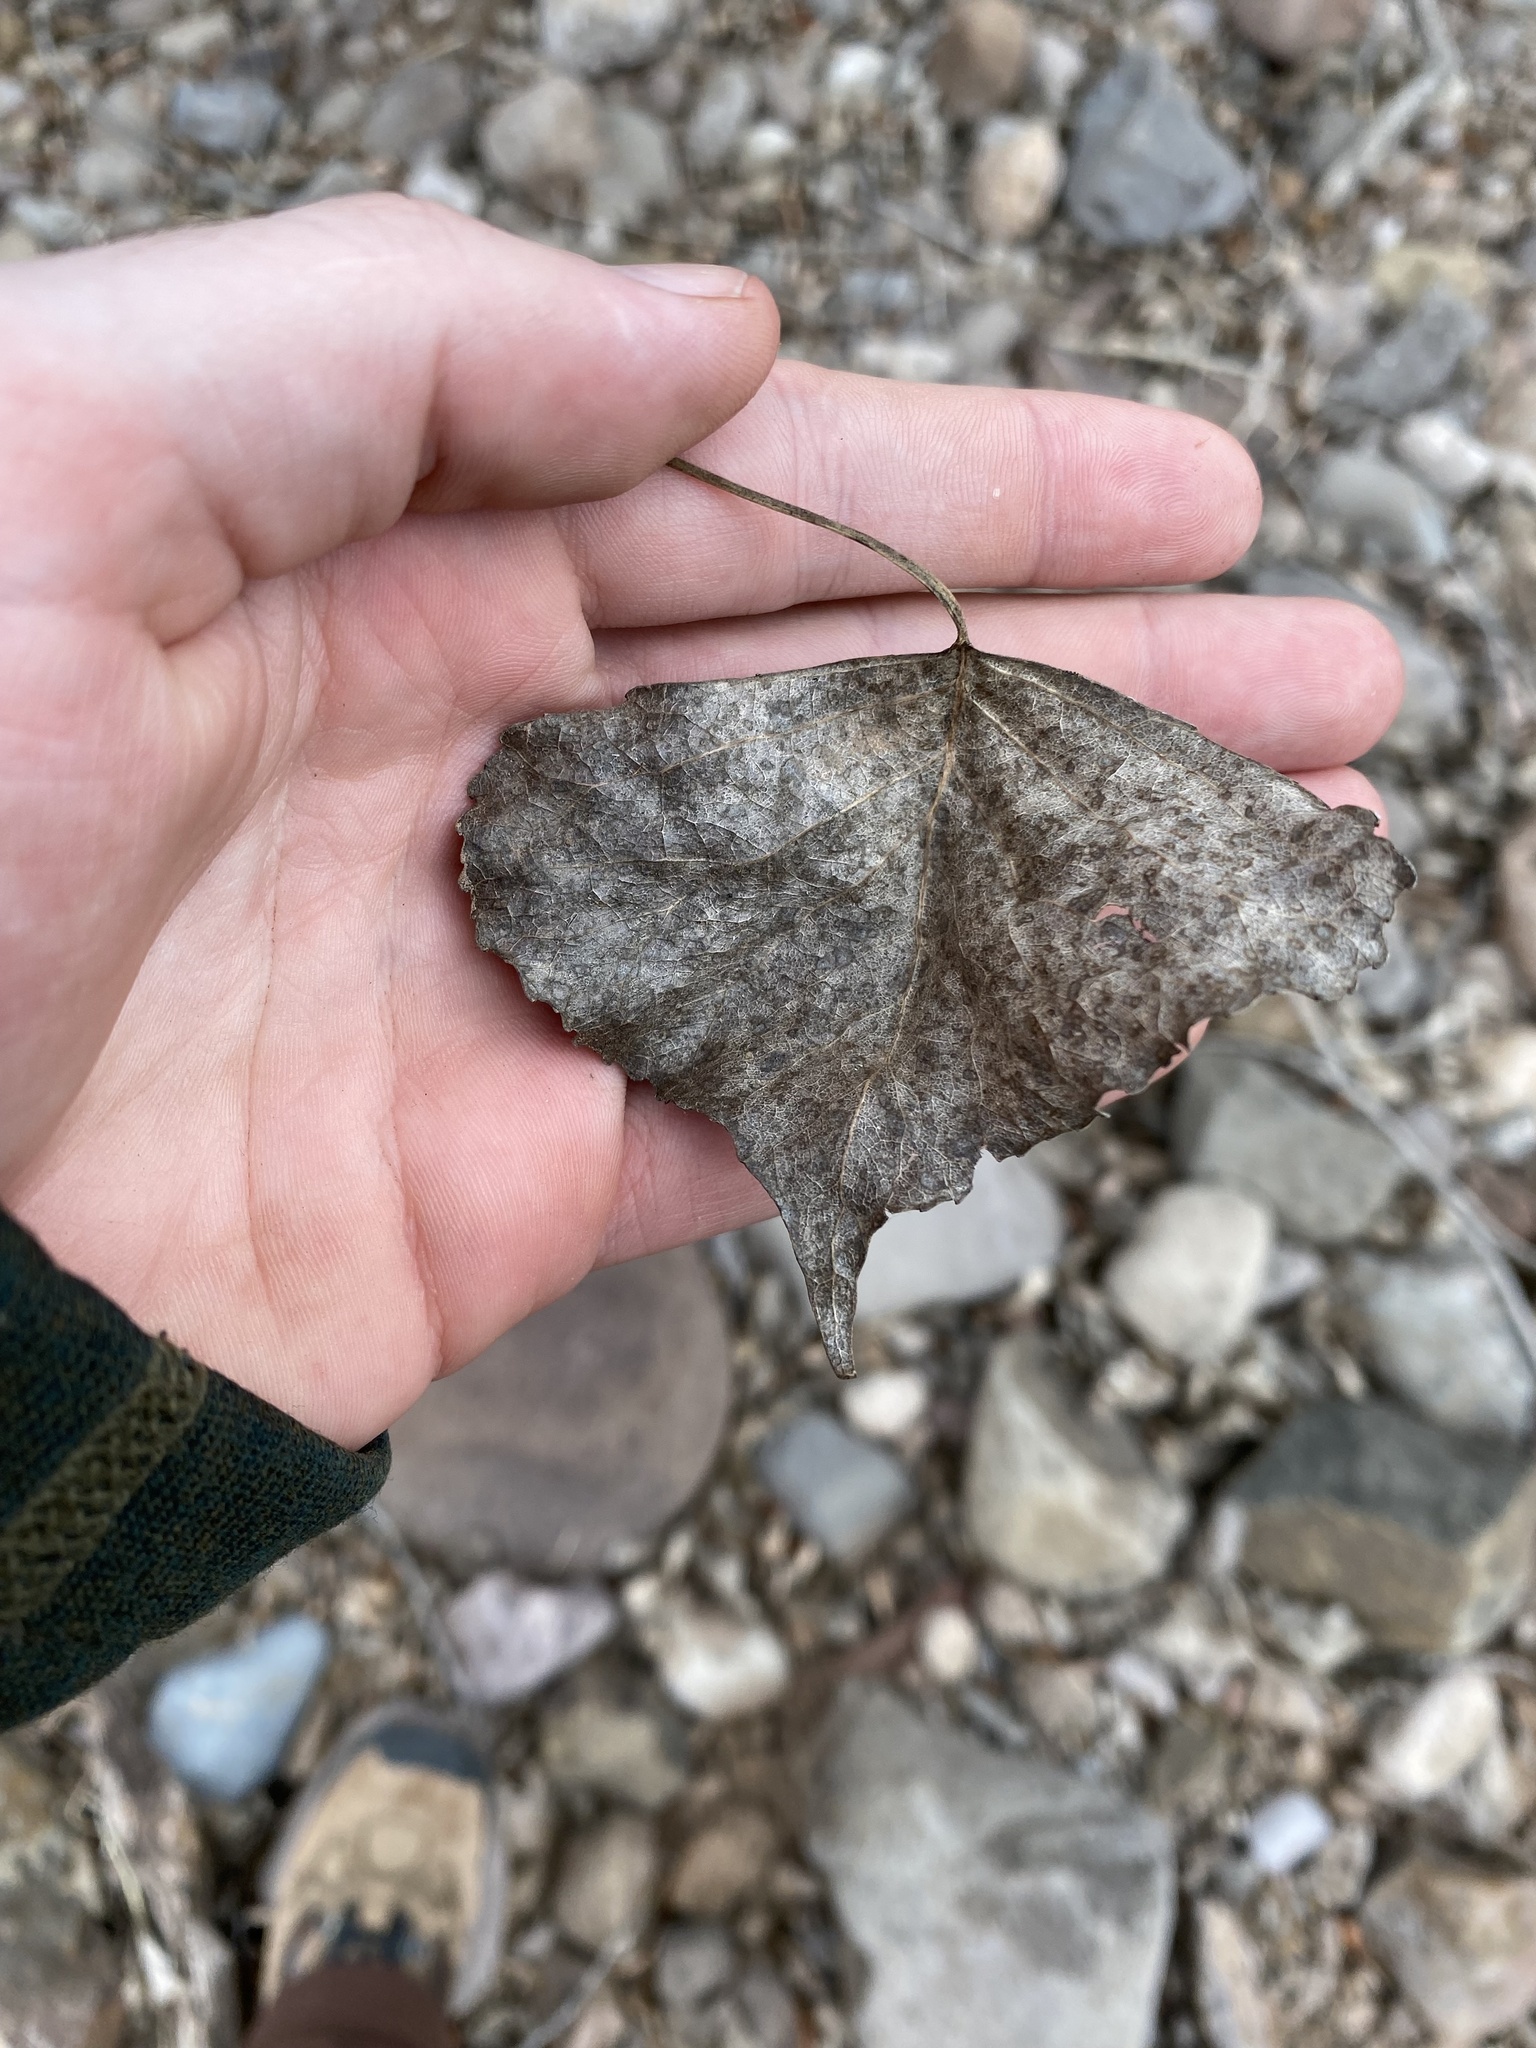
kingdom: Plantae
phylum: Tracheophyta
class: Magnoliopsida
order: Malpighiales
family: Salicaceae
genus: Populus
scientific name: Populus fremontii
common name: Fremont's cottonwood
